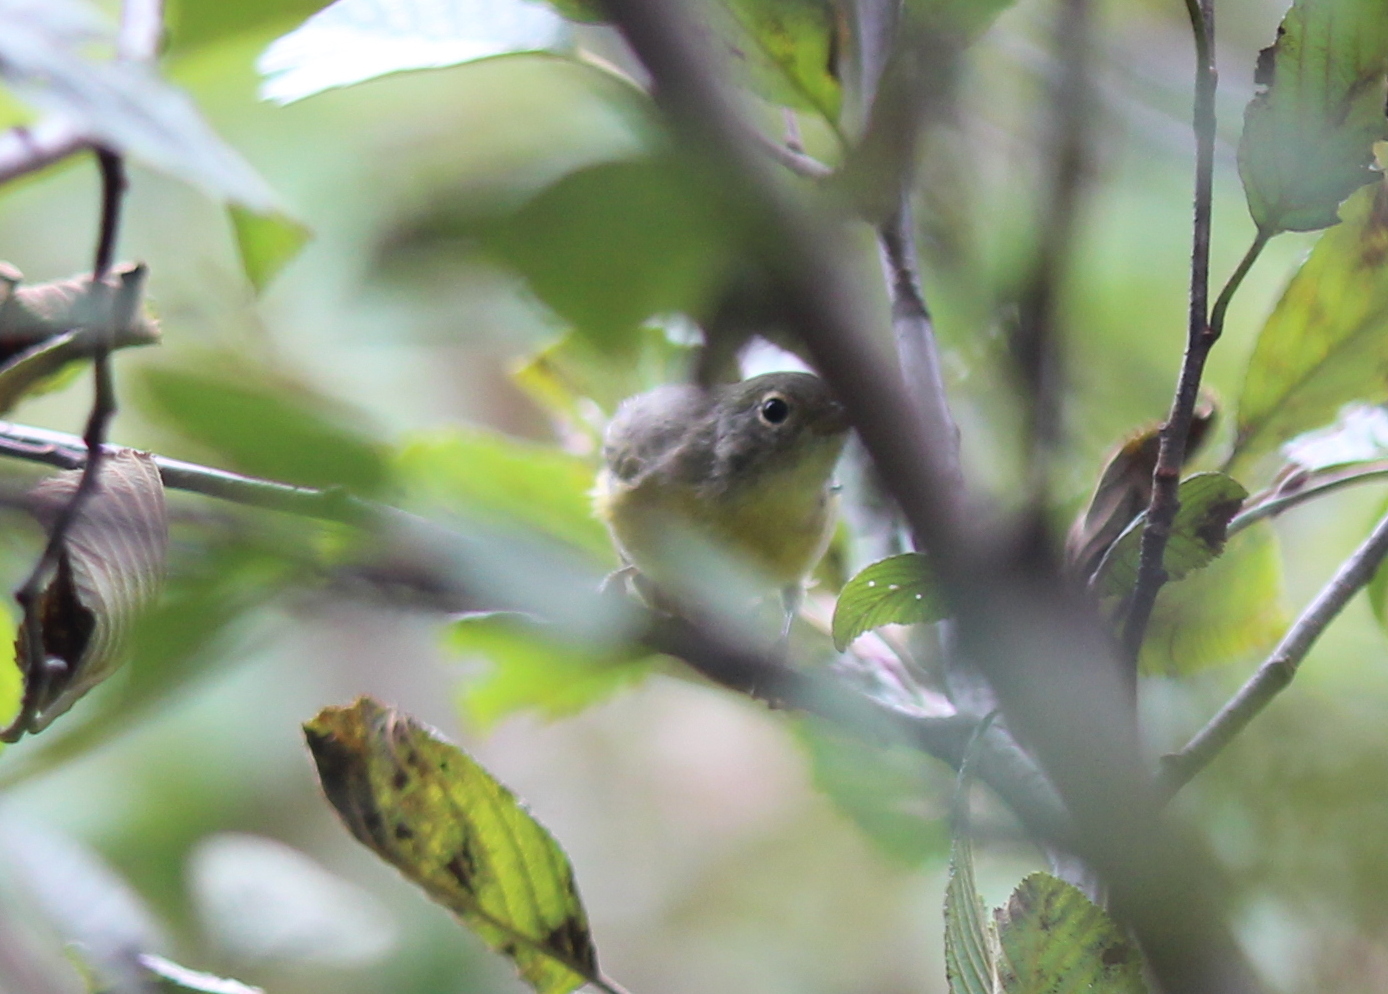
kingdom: Animalia
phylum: Chordata
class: Aves
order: Passeriformes
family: Parulidae
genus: Leiothlypis
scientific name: Leiothlypis ruficapilla
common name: Nashville warbler
